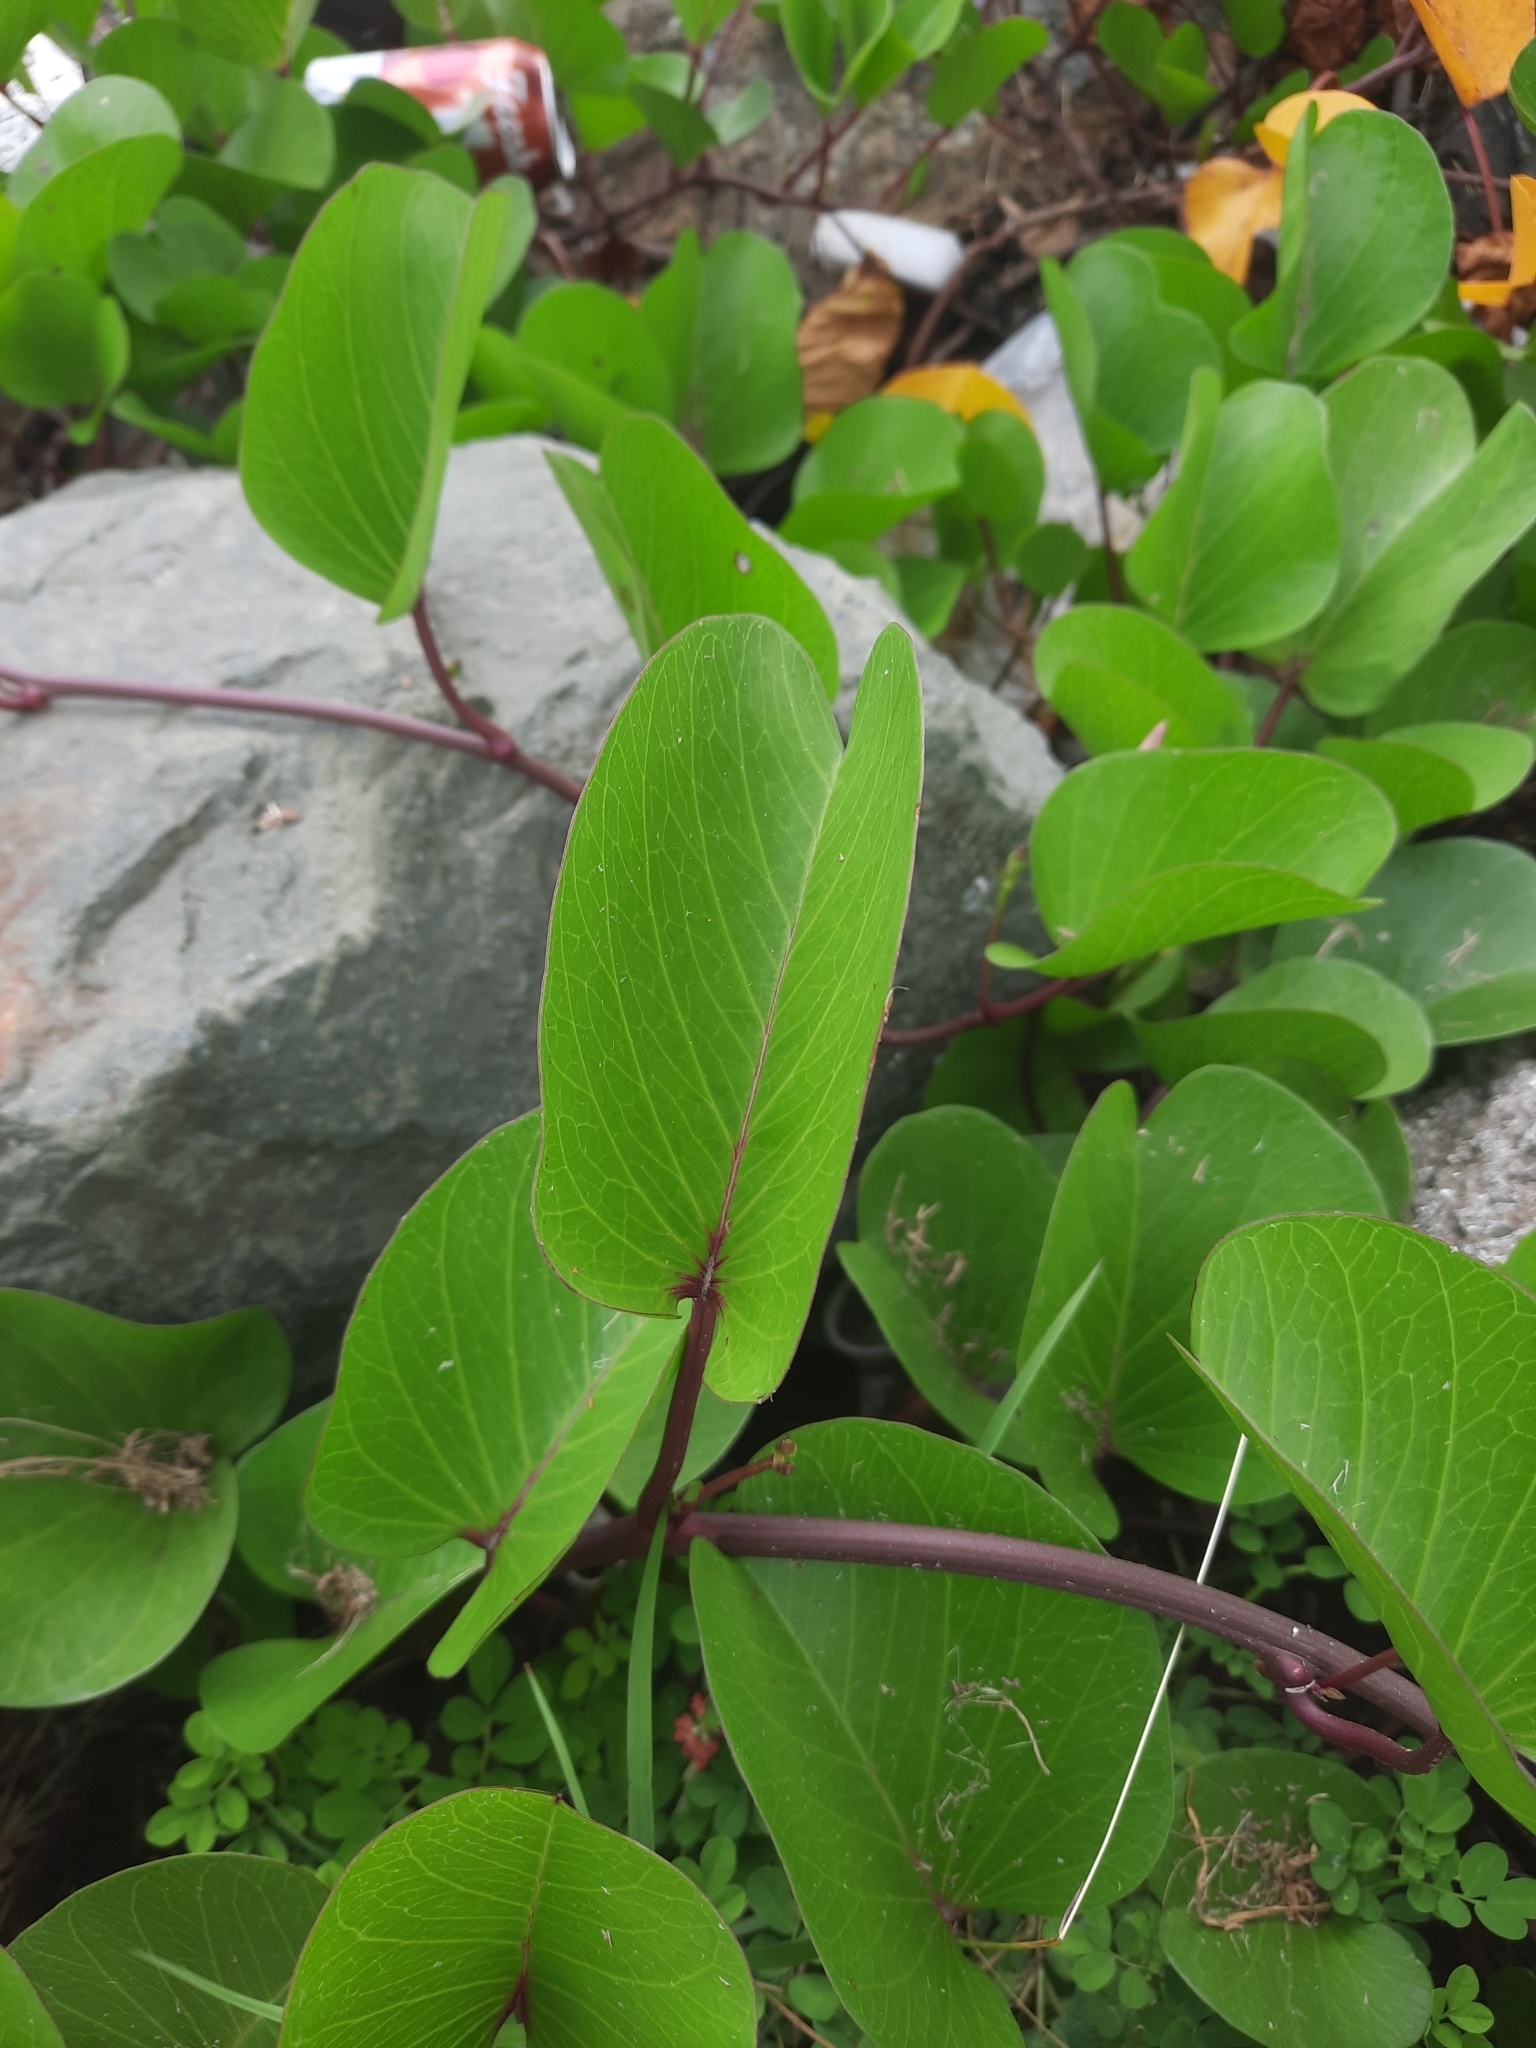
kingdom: Plantae
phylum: Tracheophyta
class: Magnoliopsida
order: Solanales
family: Convolvulaceae
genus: Ipomoea
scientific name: Ipomoea pes-caprae
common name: Beach morning glory
